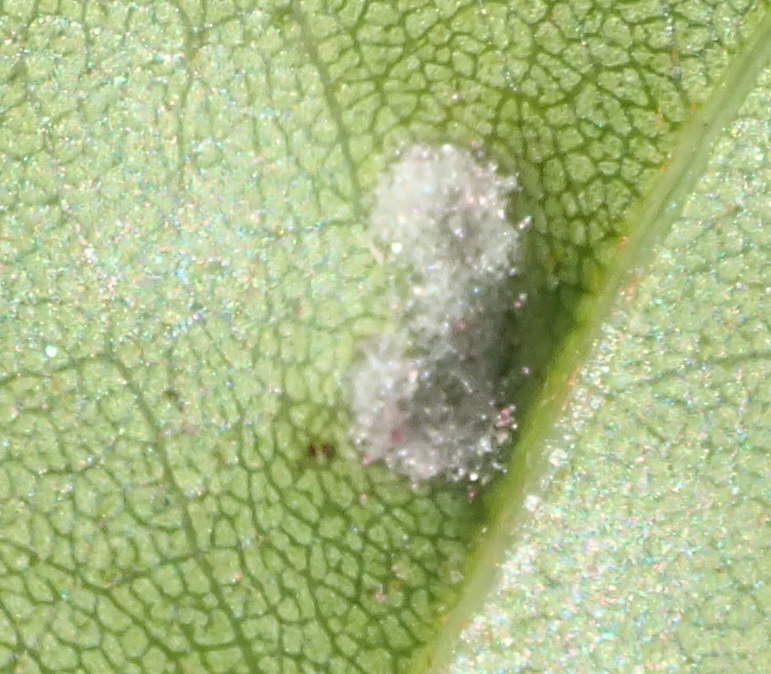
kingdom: Animalia
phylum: Arthropoda
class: Arachnida
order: Trombidiformes
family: Eriophyidae
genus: Eriophyes
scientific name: Eriophyes
